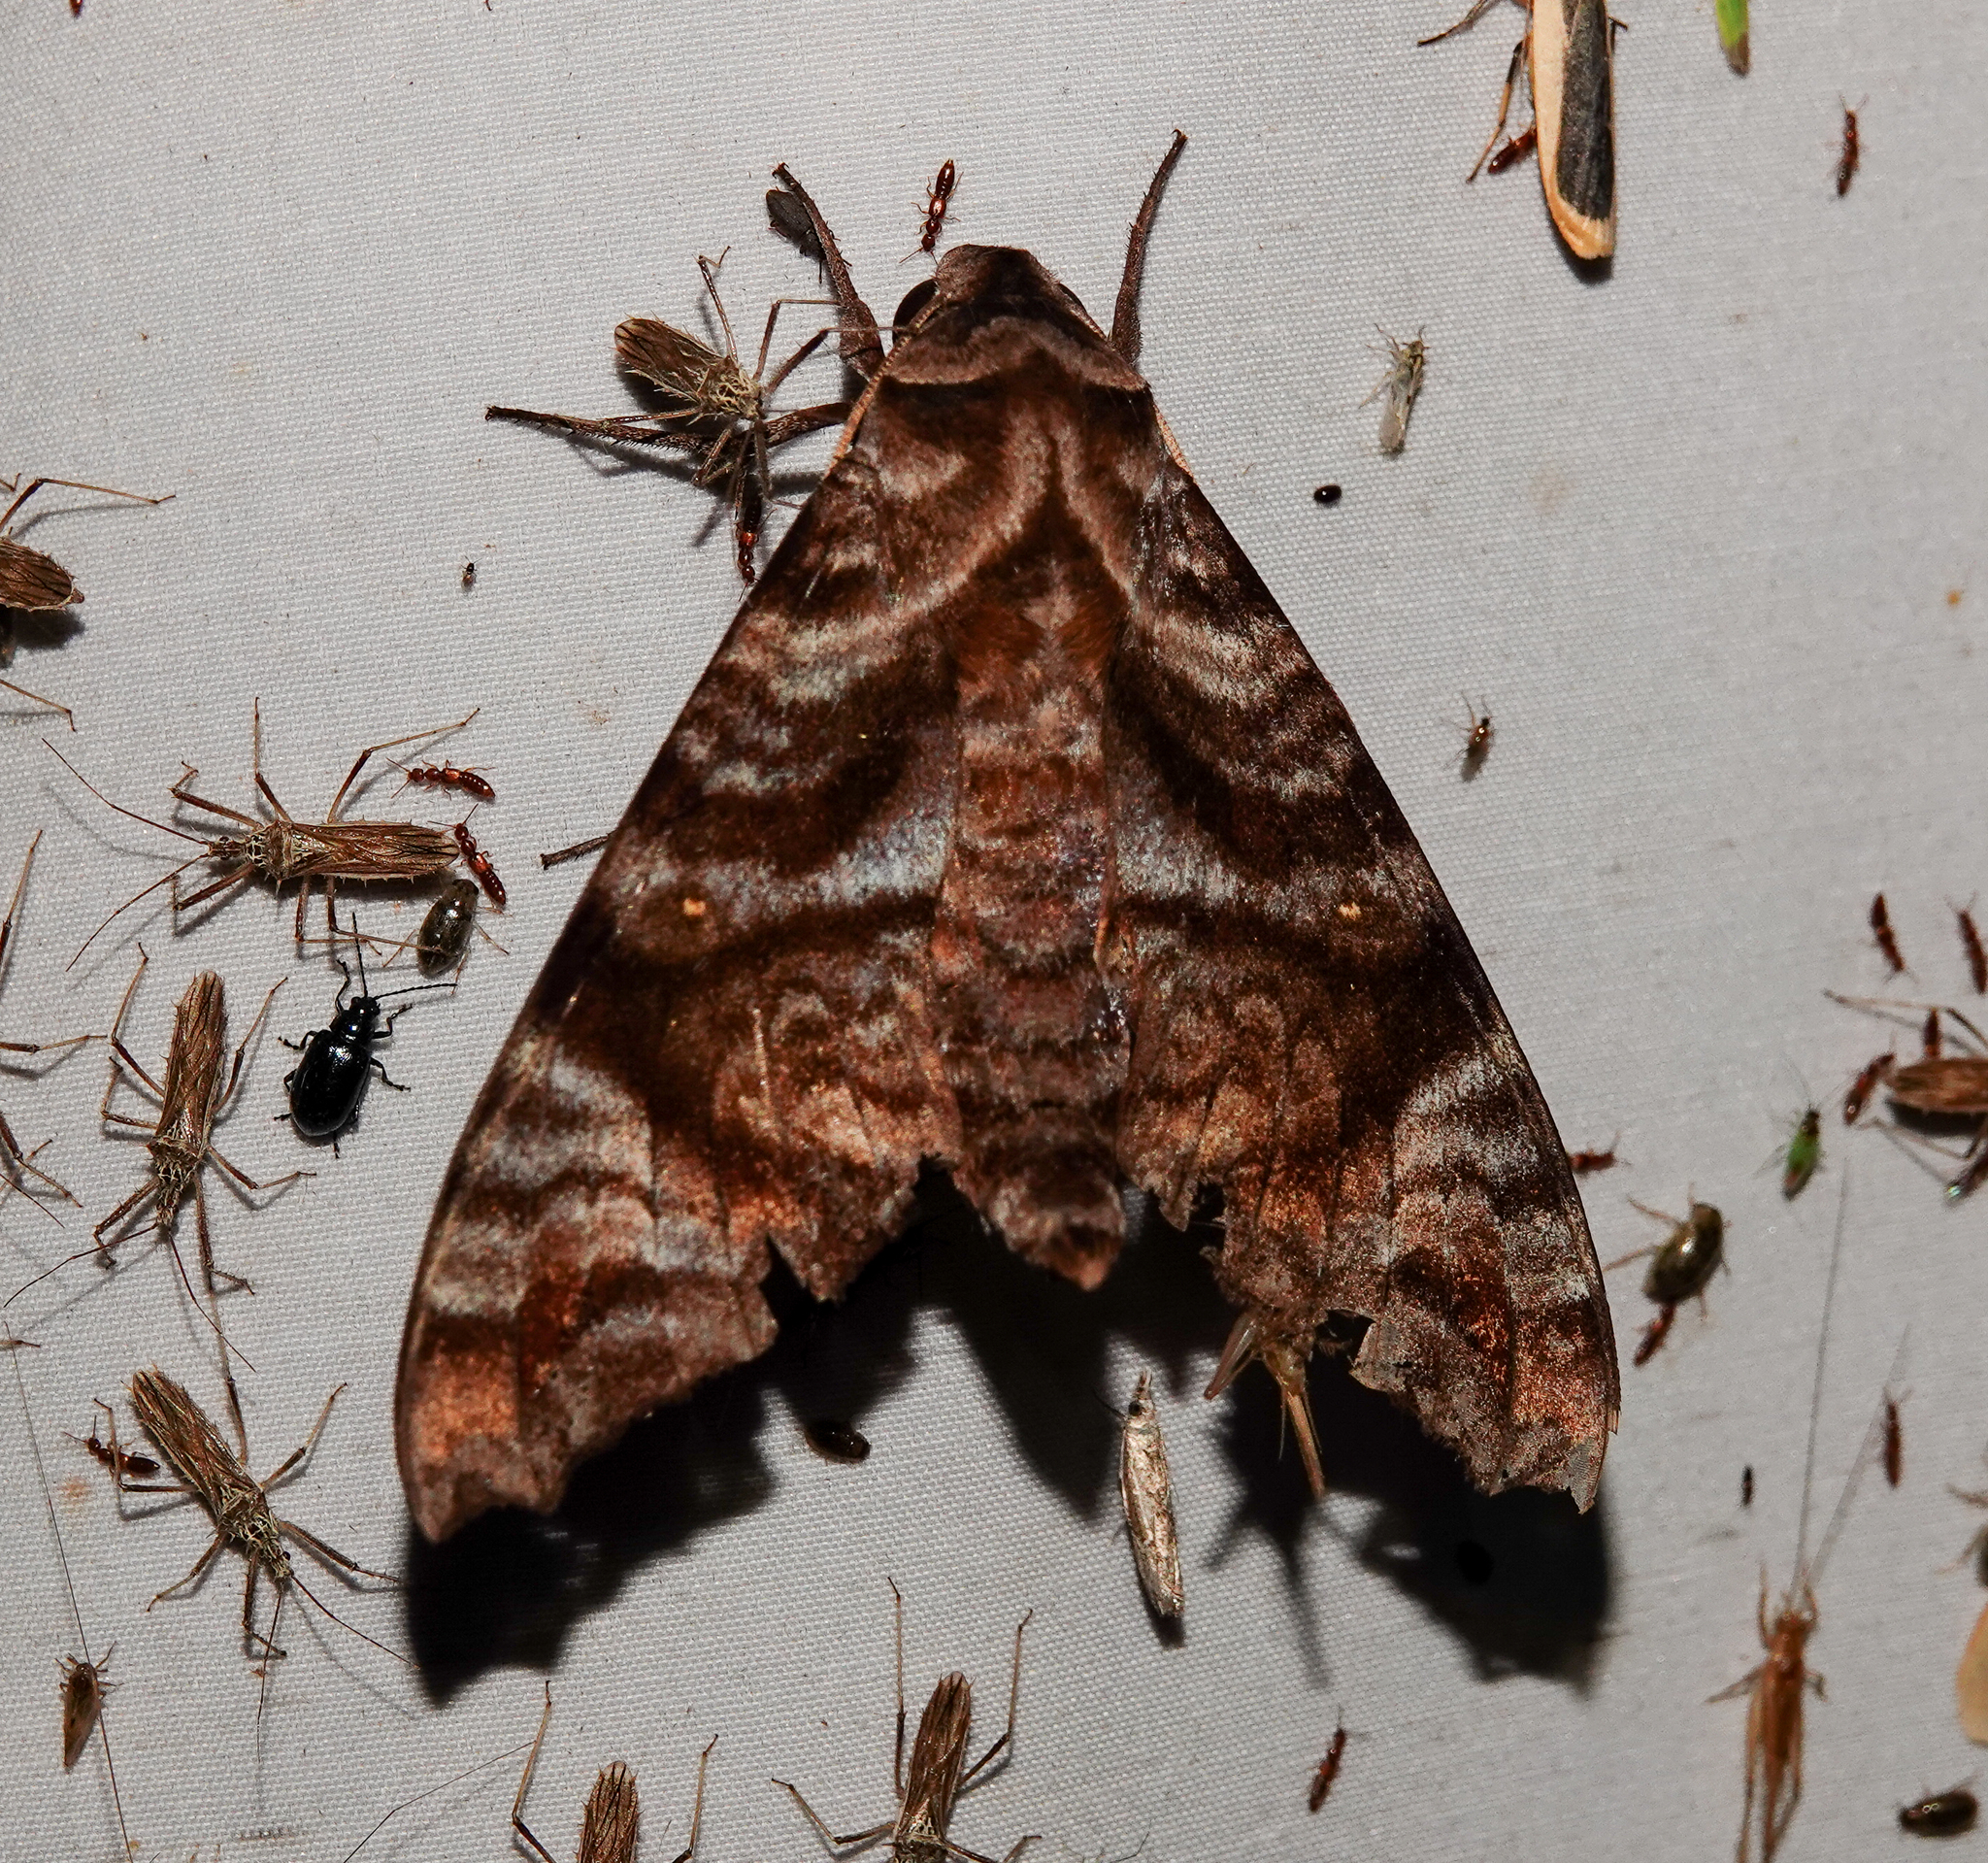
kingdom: Animalia
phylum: Arthropoda
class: Insecta
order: Lepidoptera
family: Sphingidae
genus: Acosmeryx
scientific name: Acosmeryx sericeus
